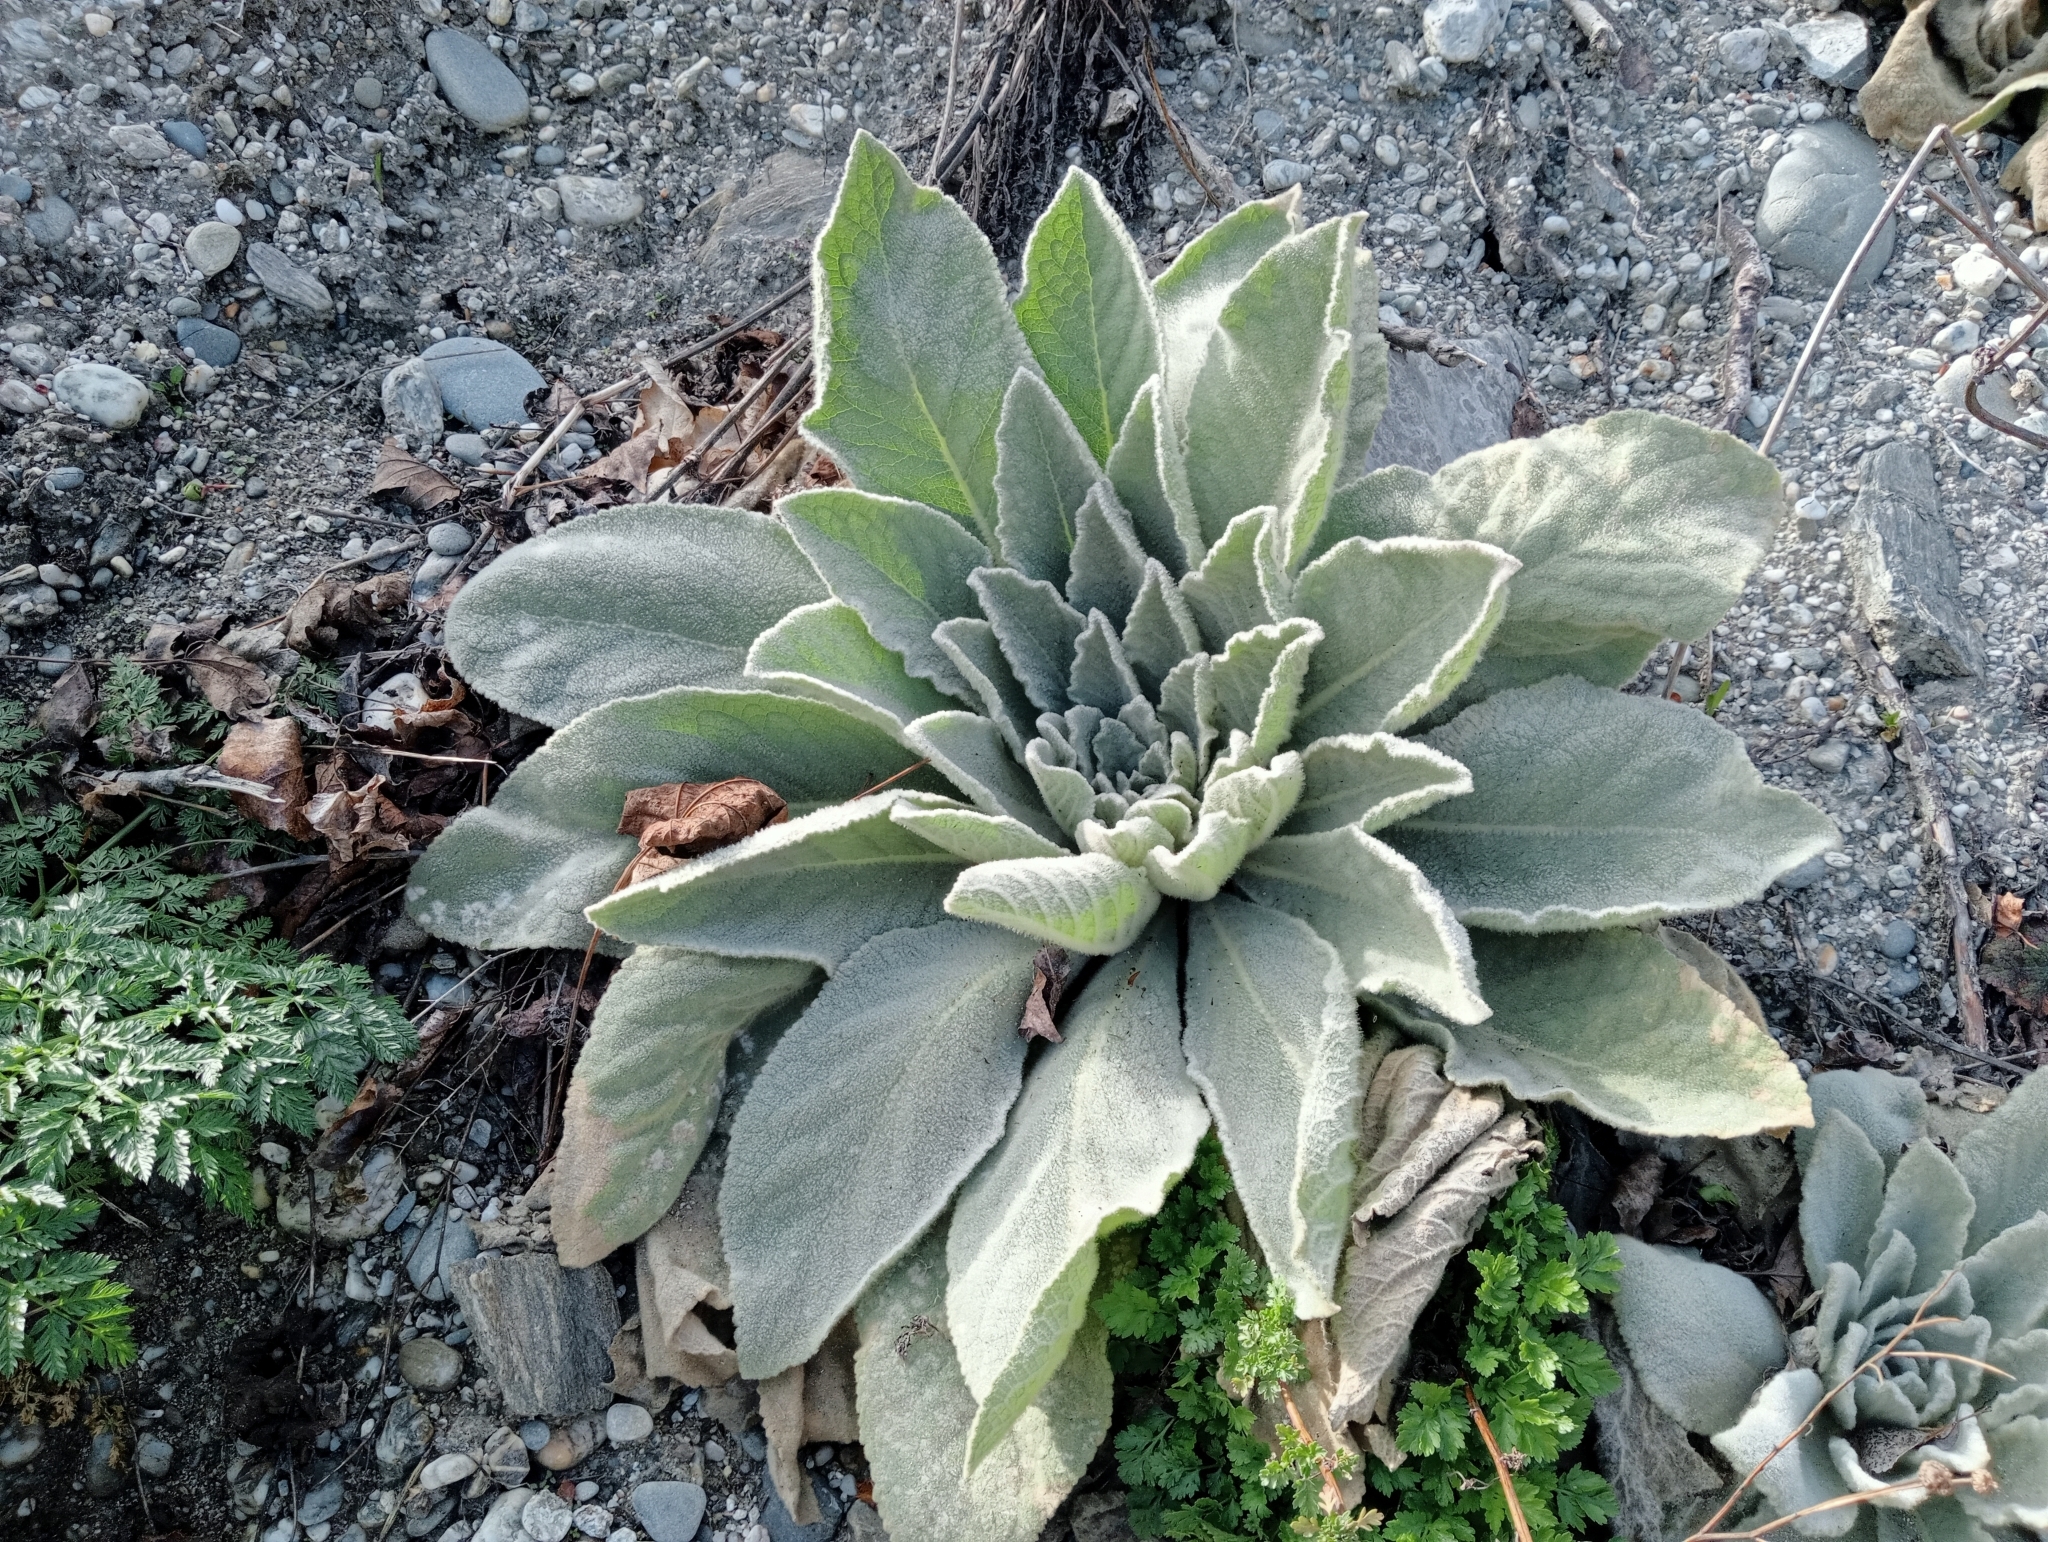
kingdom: Plantae
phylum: Tracheophyta
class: Magnoliopsida
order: Lamiales
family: Scrophulariaceae
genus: Verbascum
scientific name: Verbascum thapsus
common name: Common mullein
